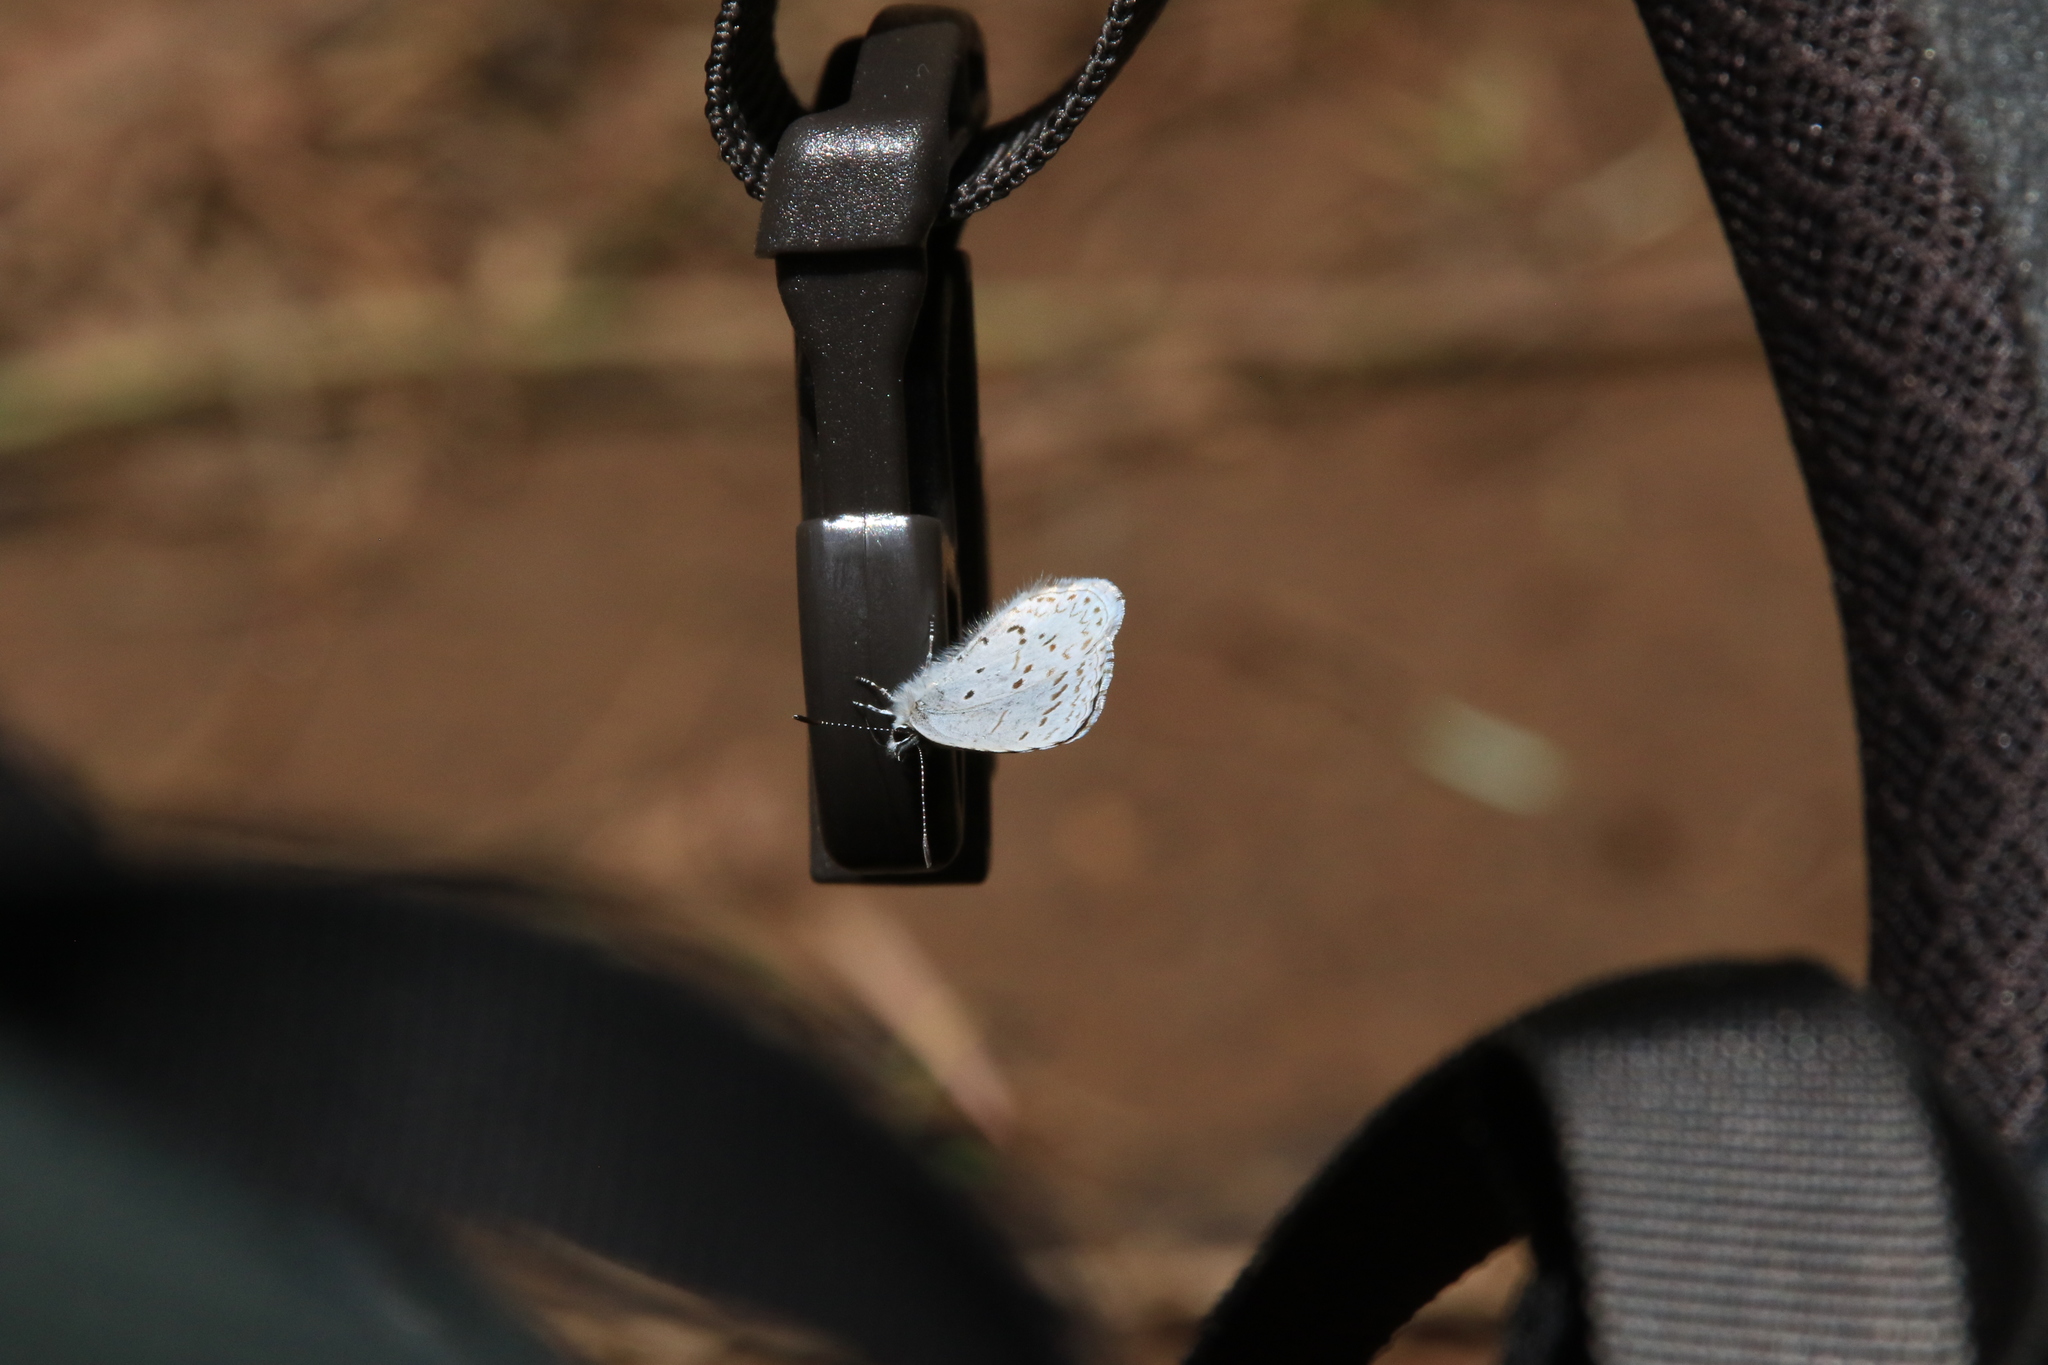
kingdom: Animalia
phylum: Arthropoda
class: Insecta
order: Lepidoptera
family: Lycaenidae
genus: Celastrina
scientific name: Celastrina ladon
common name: Spring azure
